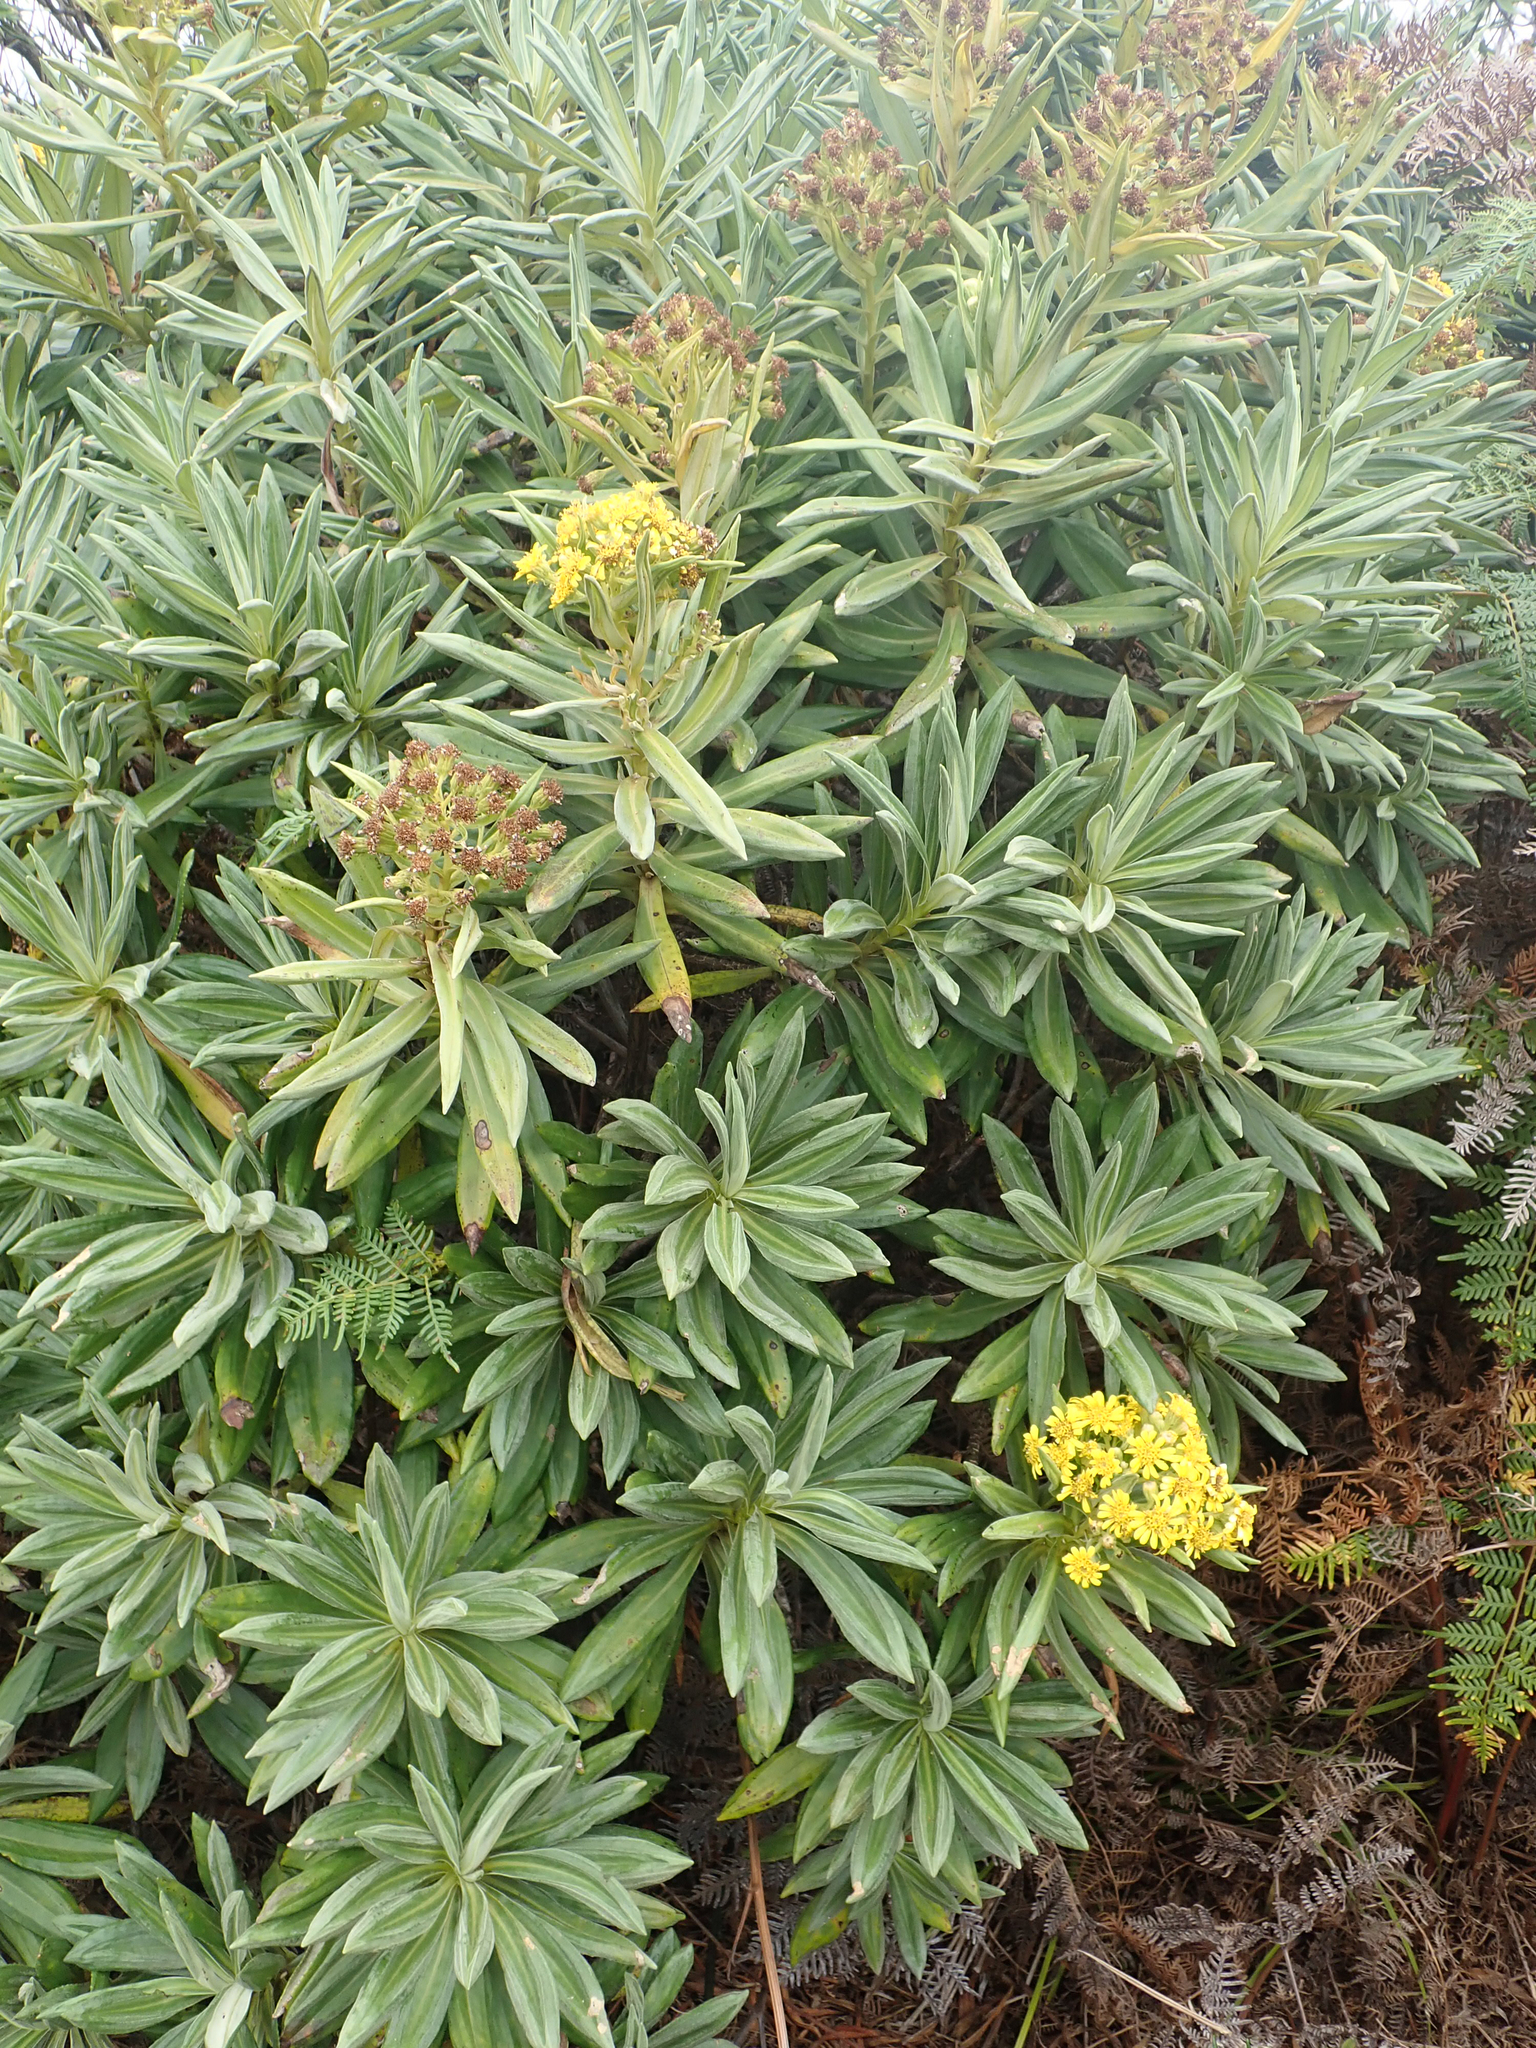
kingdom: Plantae
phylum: Tracheophyta
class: Magnoliopsida
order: Asterales
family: Asteraceae
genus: Brachyglottis
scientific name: Brachyglottis huntii
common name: Chatham island christmas tree
